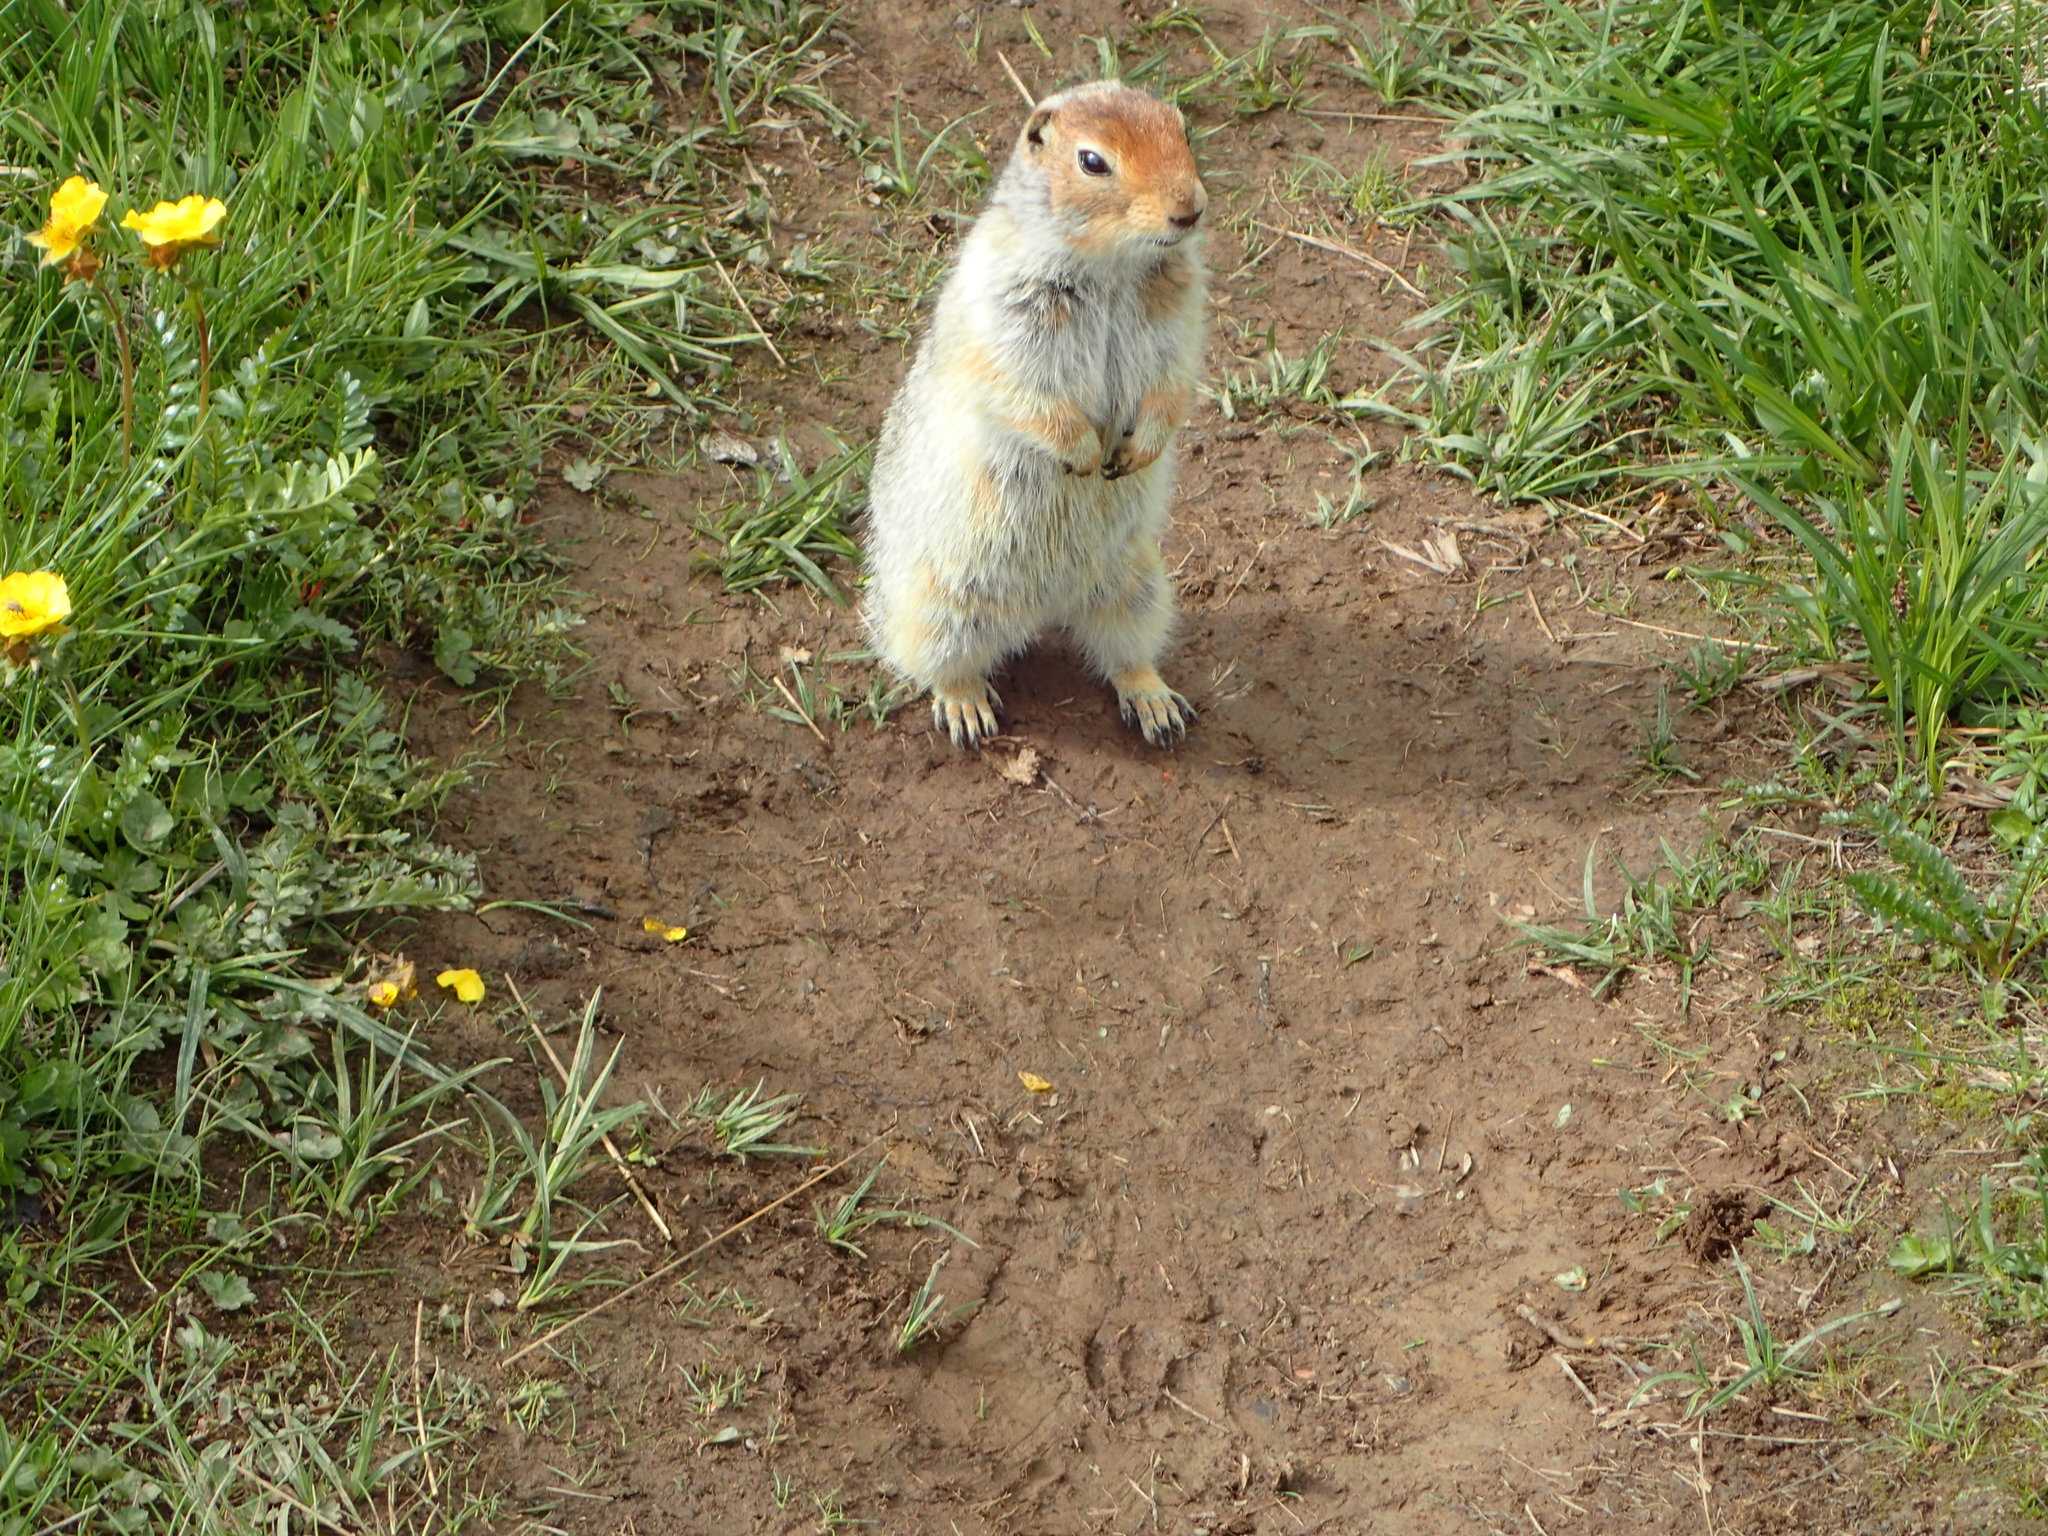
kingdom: Animalia
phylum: Chordata
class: Mammalia
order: Rodentia
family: Sciuridae
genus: Urocitellus
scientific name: Urocitellus parryii
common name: Arctic ground squirrel
